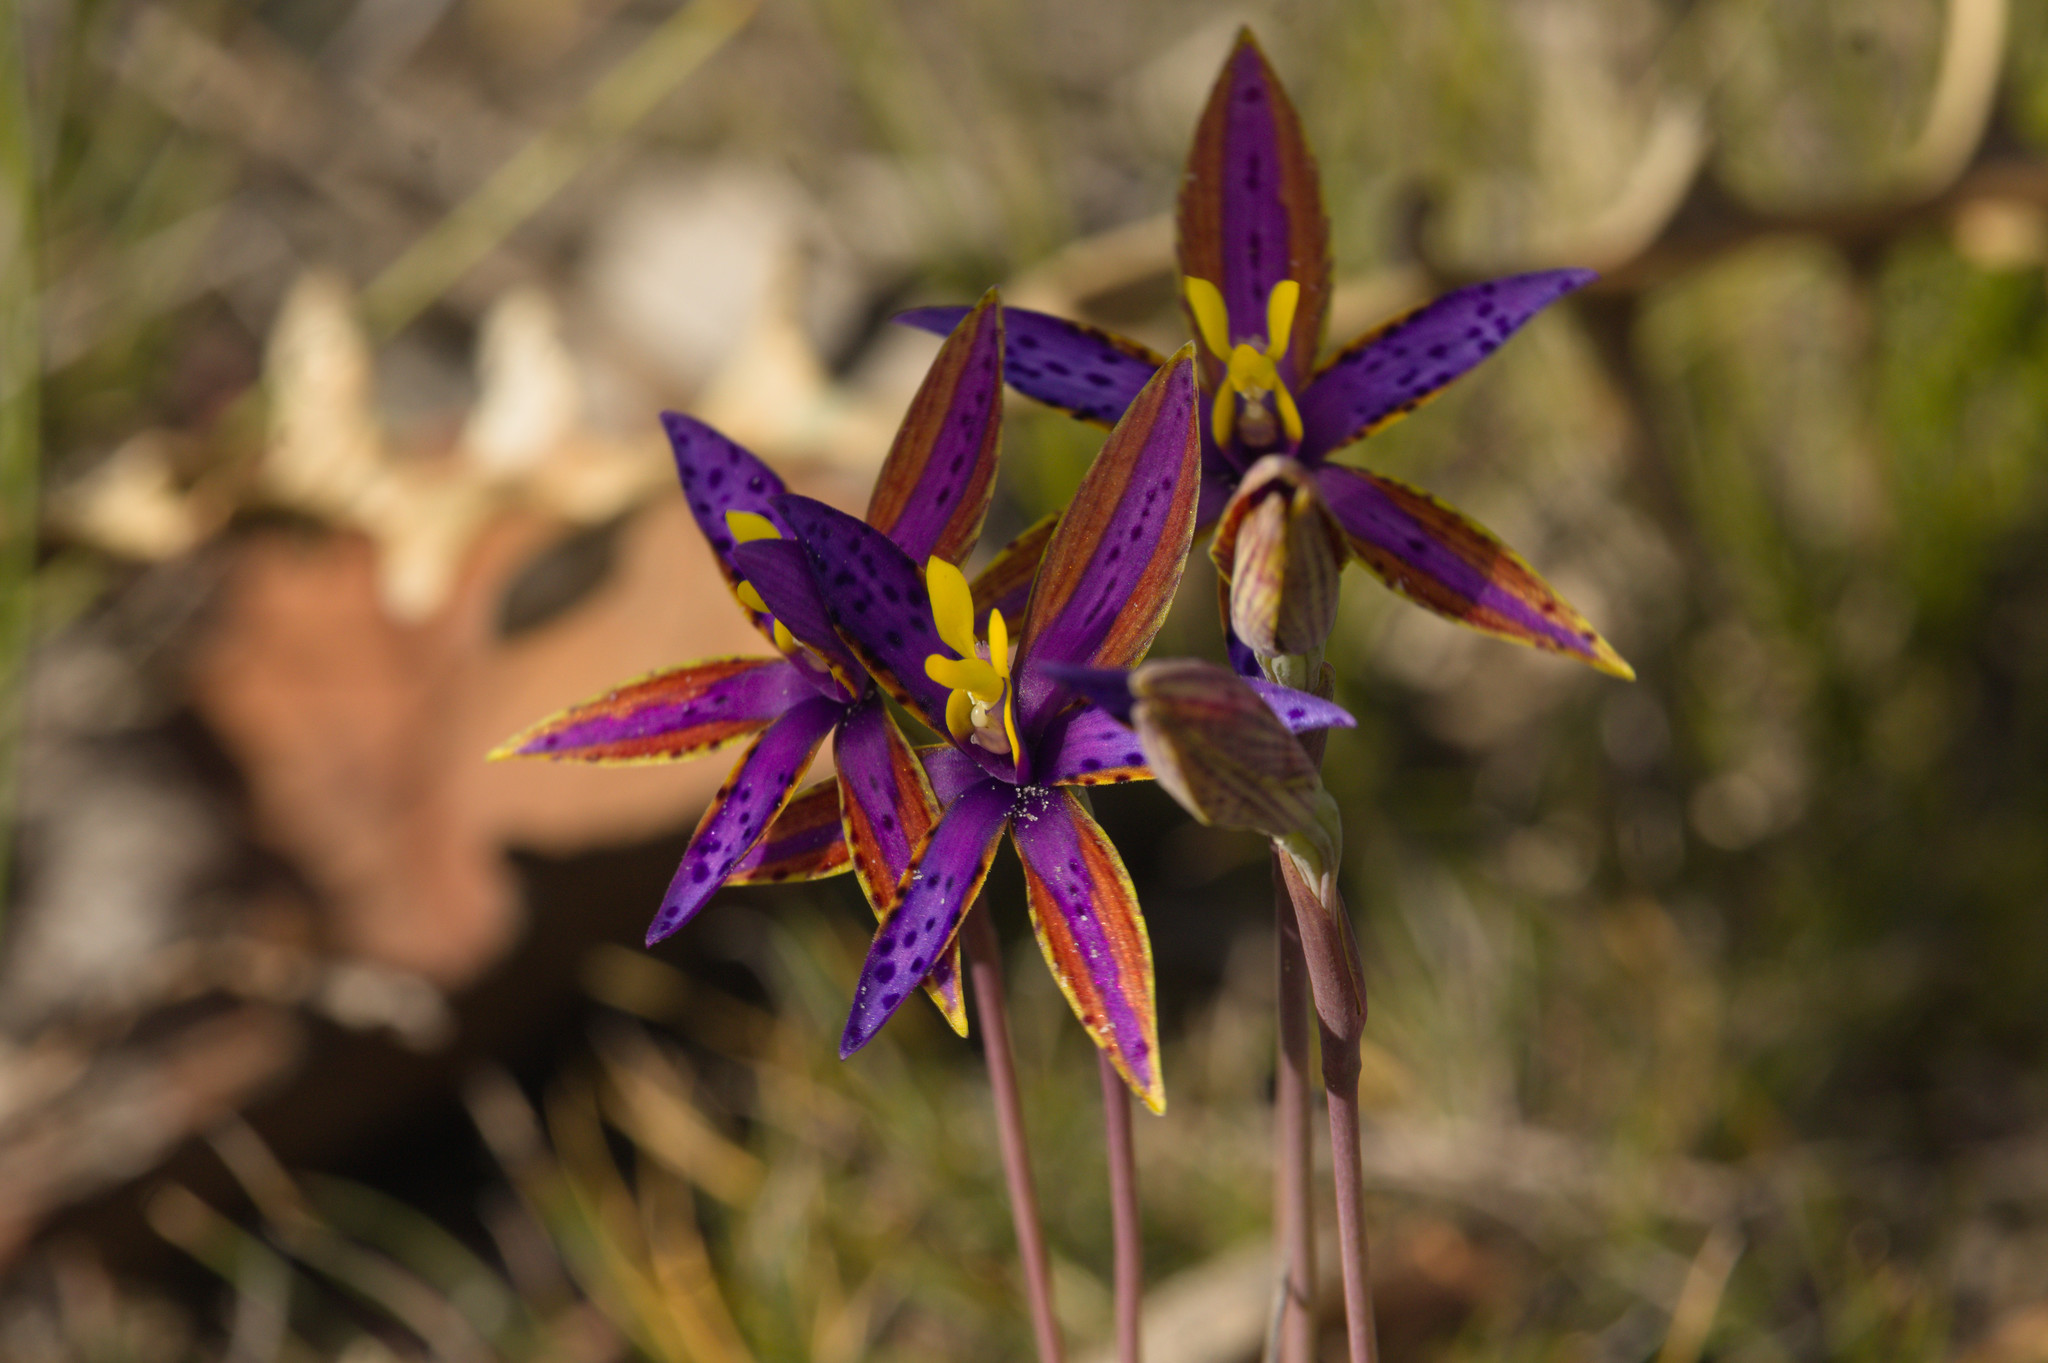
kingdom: Plantae
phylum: Tracheophyta
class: Liliopsida
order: Asparagales
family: Orchidaceae
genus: Thelymitra
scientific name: Thelymitra speciosa
